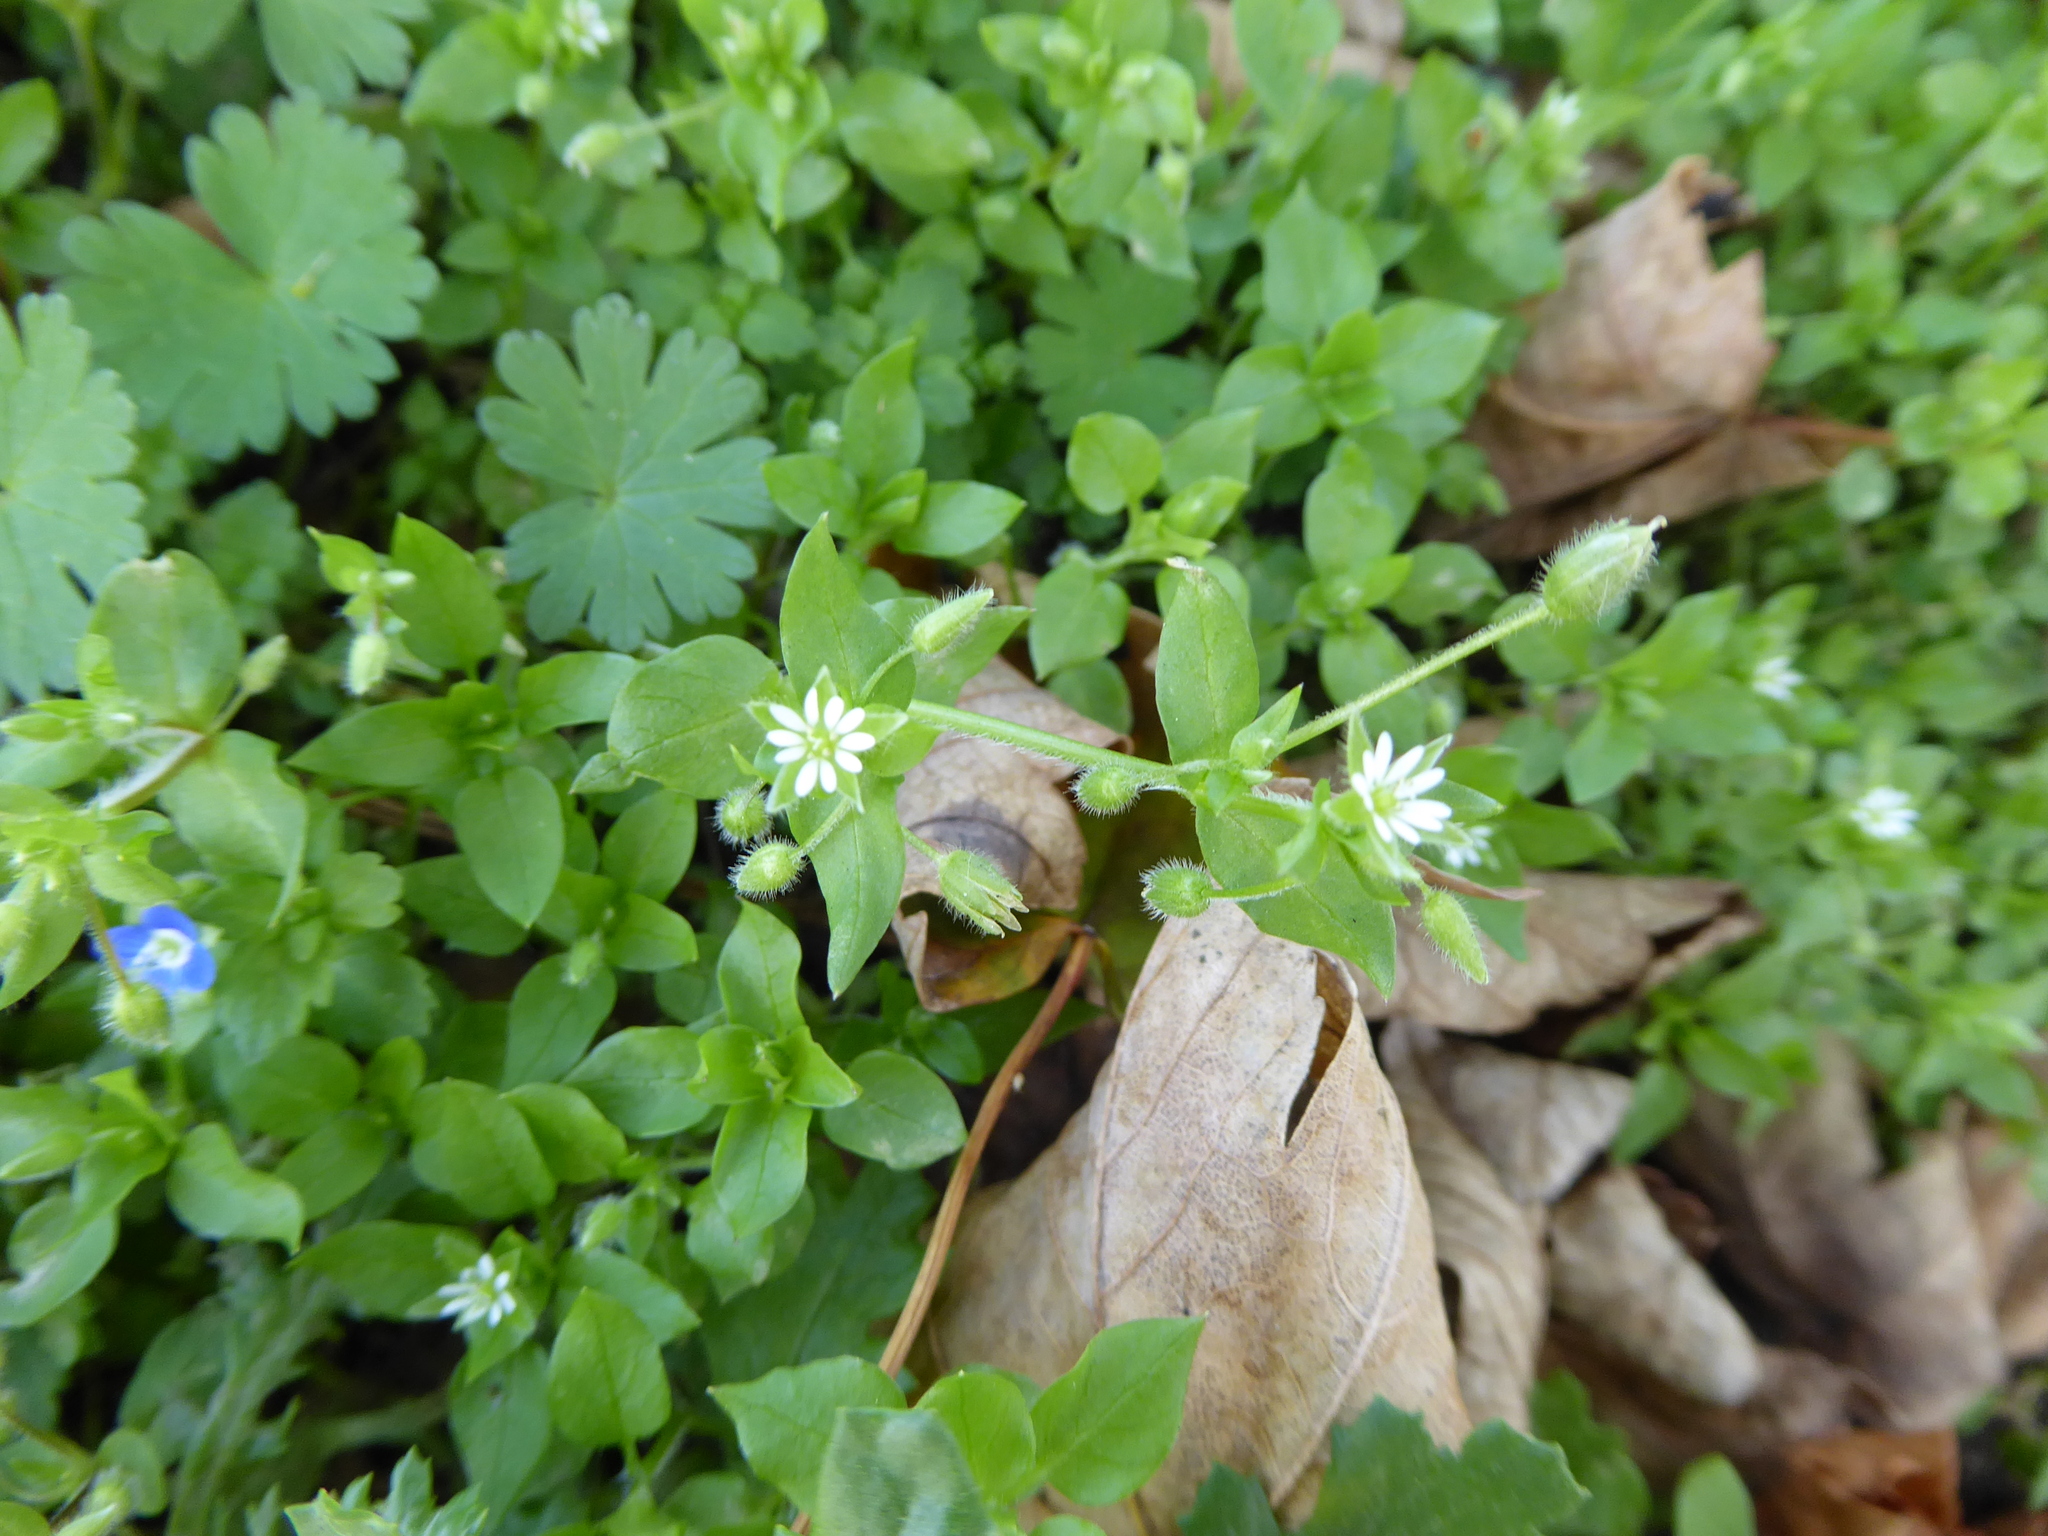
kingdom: Plantae
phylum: Tracheophyta
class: Magnoliopsida
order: Caryophyllales
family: Caryophyllaceae
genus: Stellaria
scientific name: Stellaria media
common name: Common chickweed
